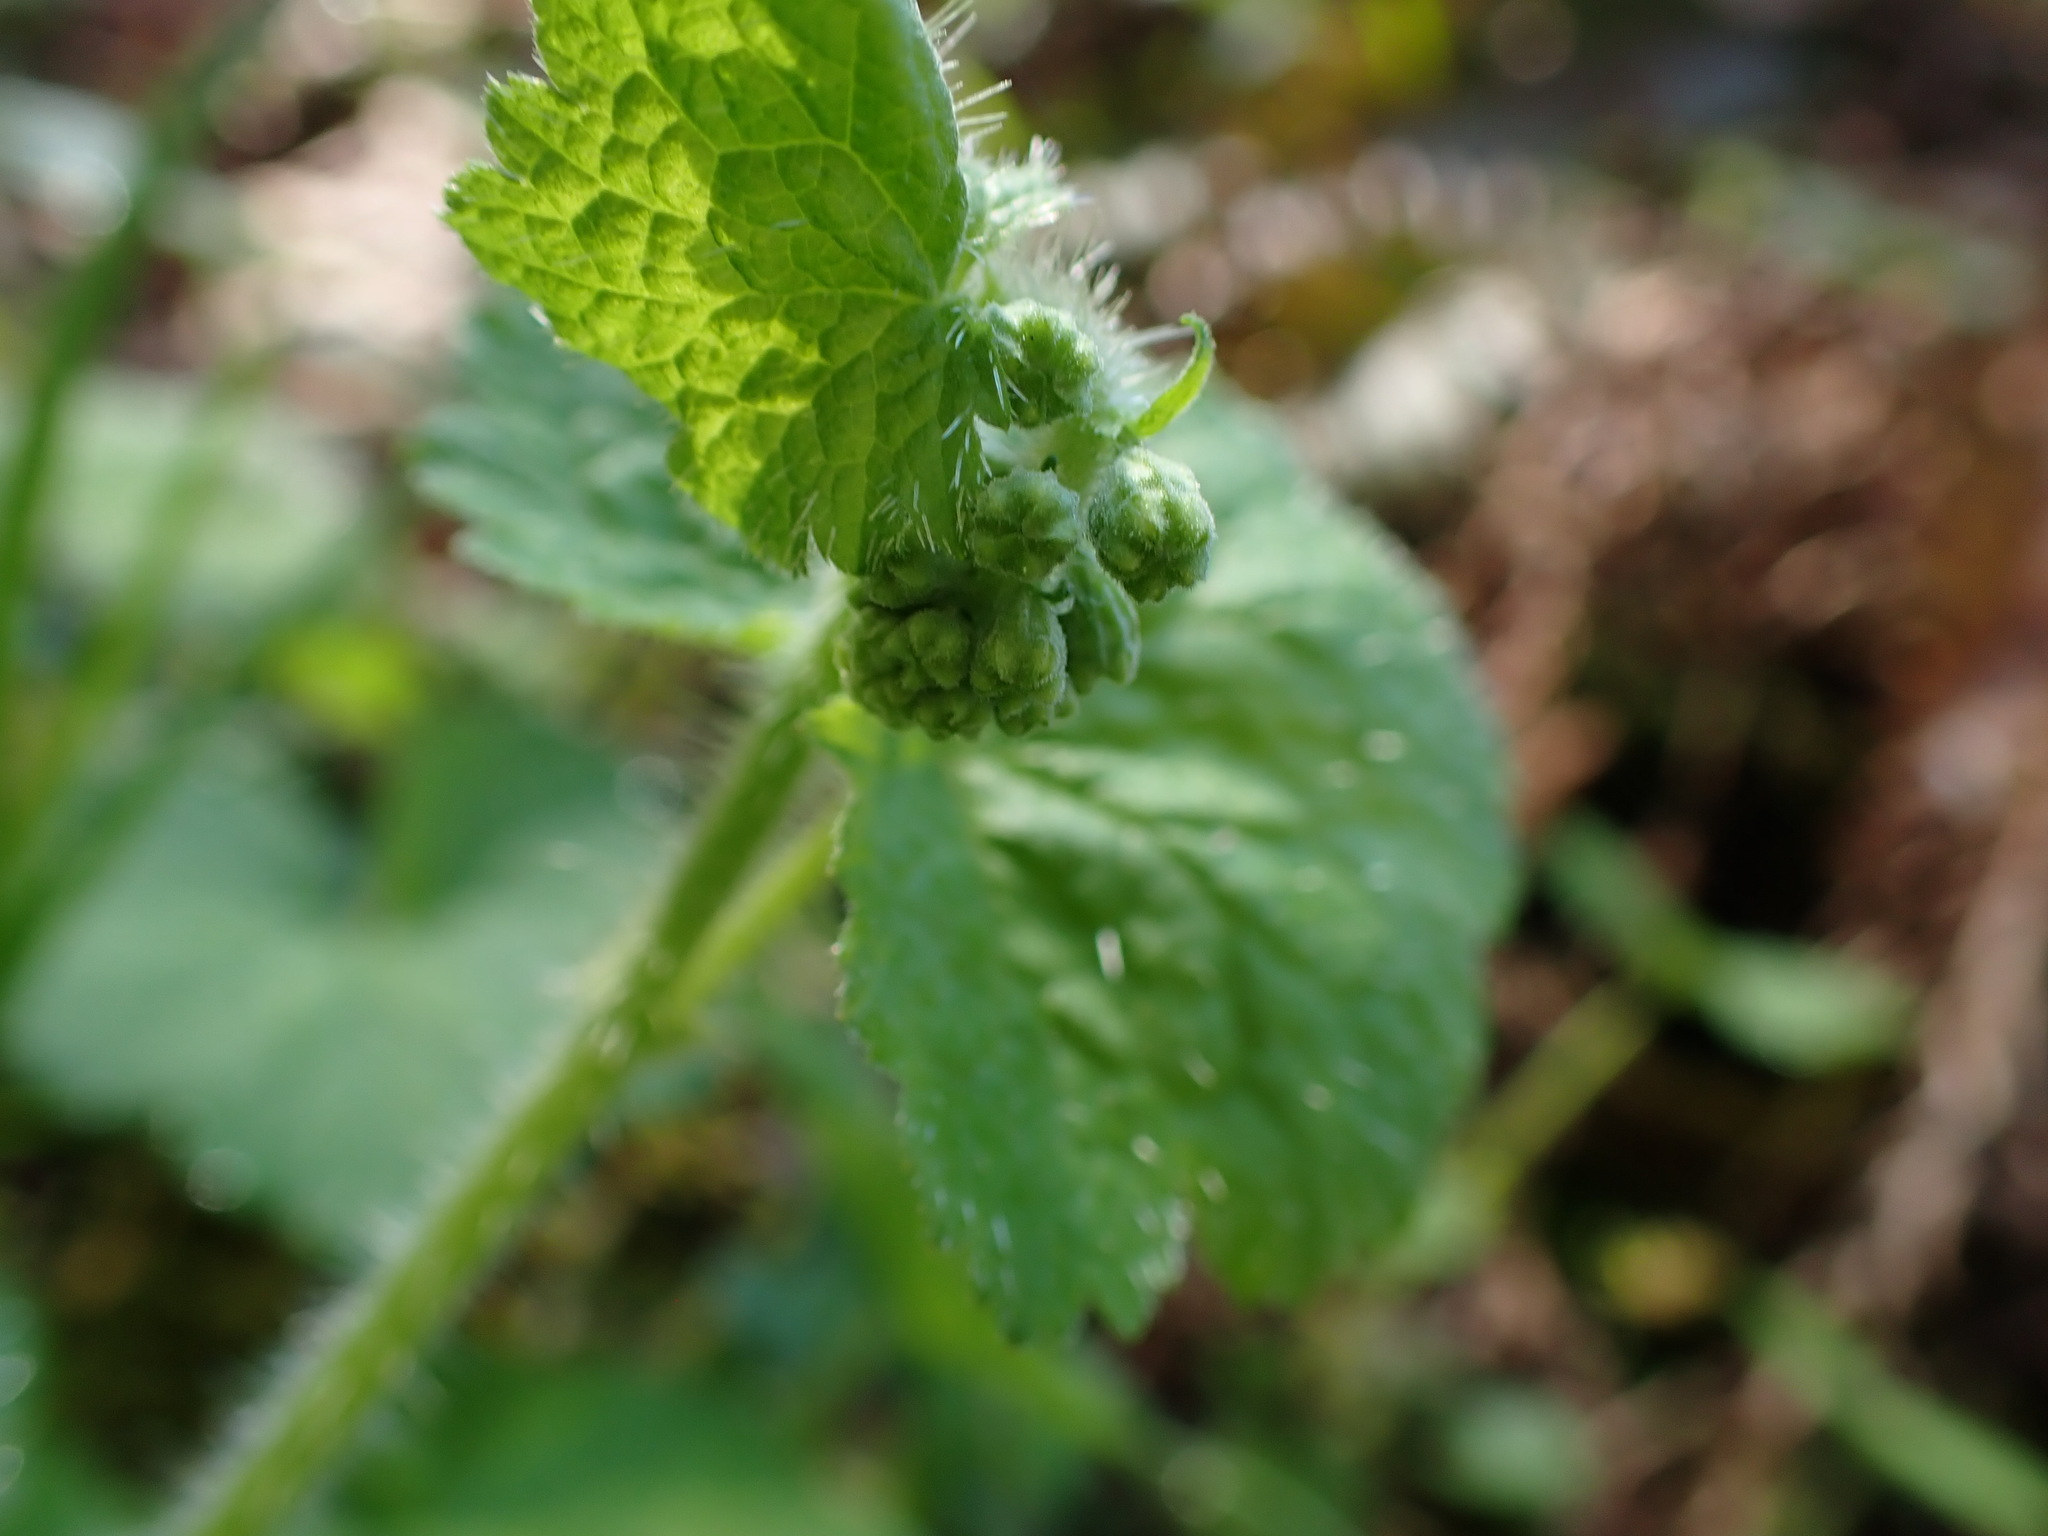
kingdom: Plantae
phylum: Tracheophyta
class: Magnoliopsida
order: Saxifragales
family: Saxifragaceae
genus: Tellima
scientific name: Tellima grandiflora
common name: Fringecups
